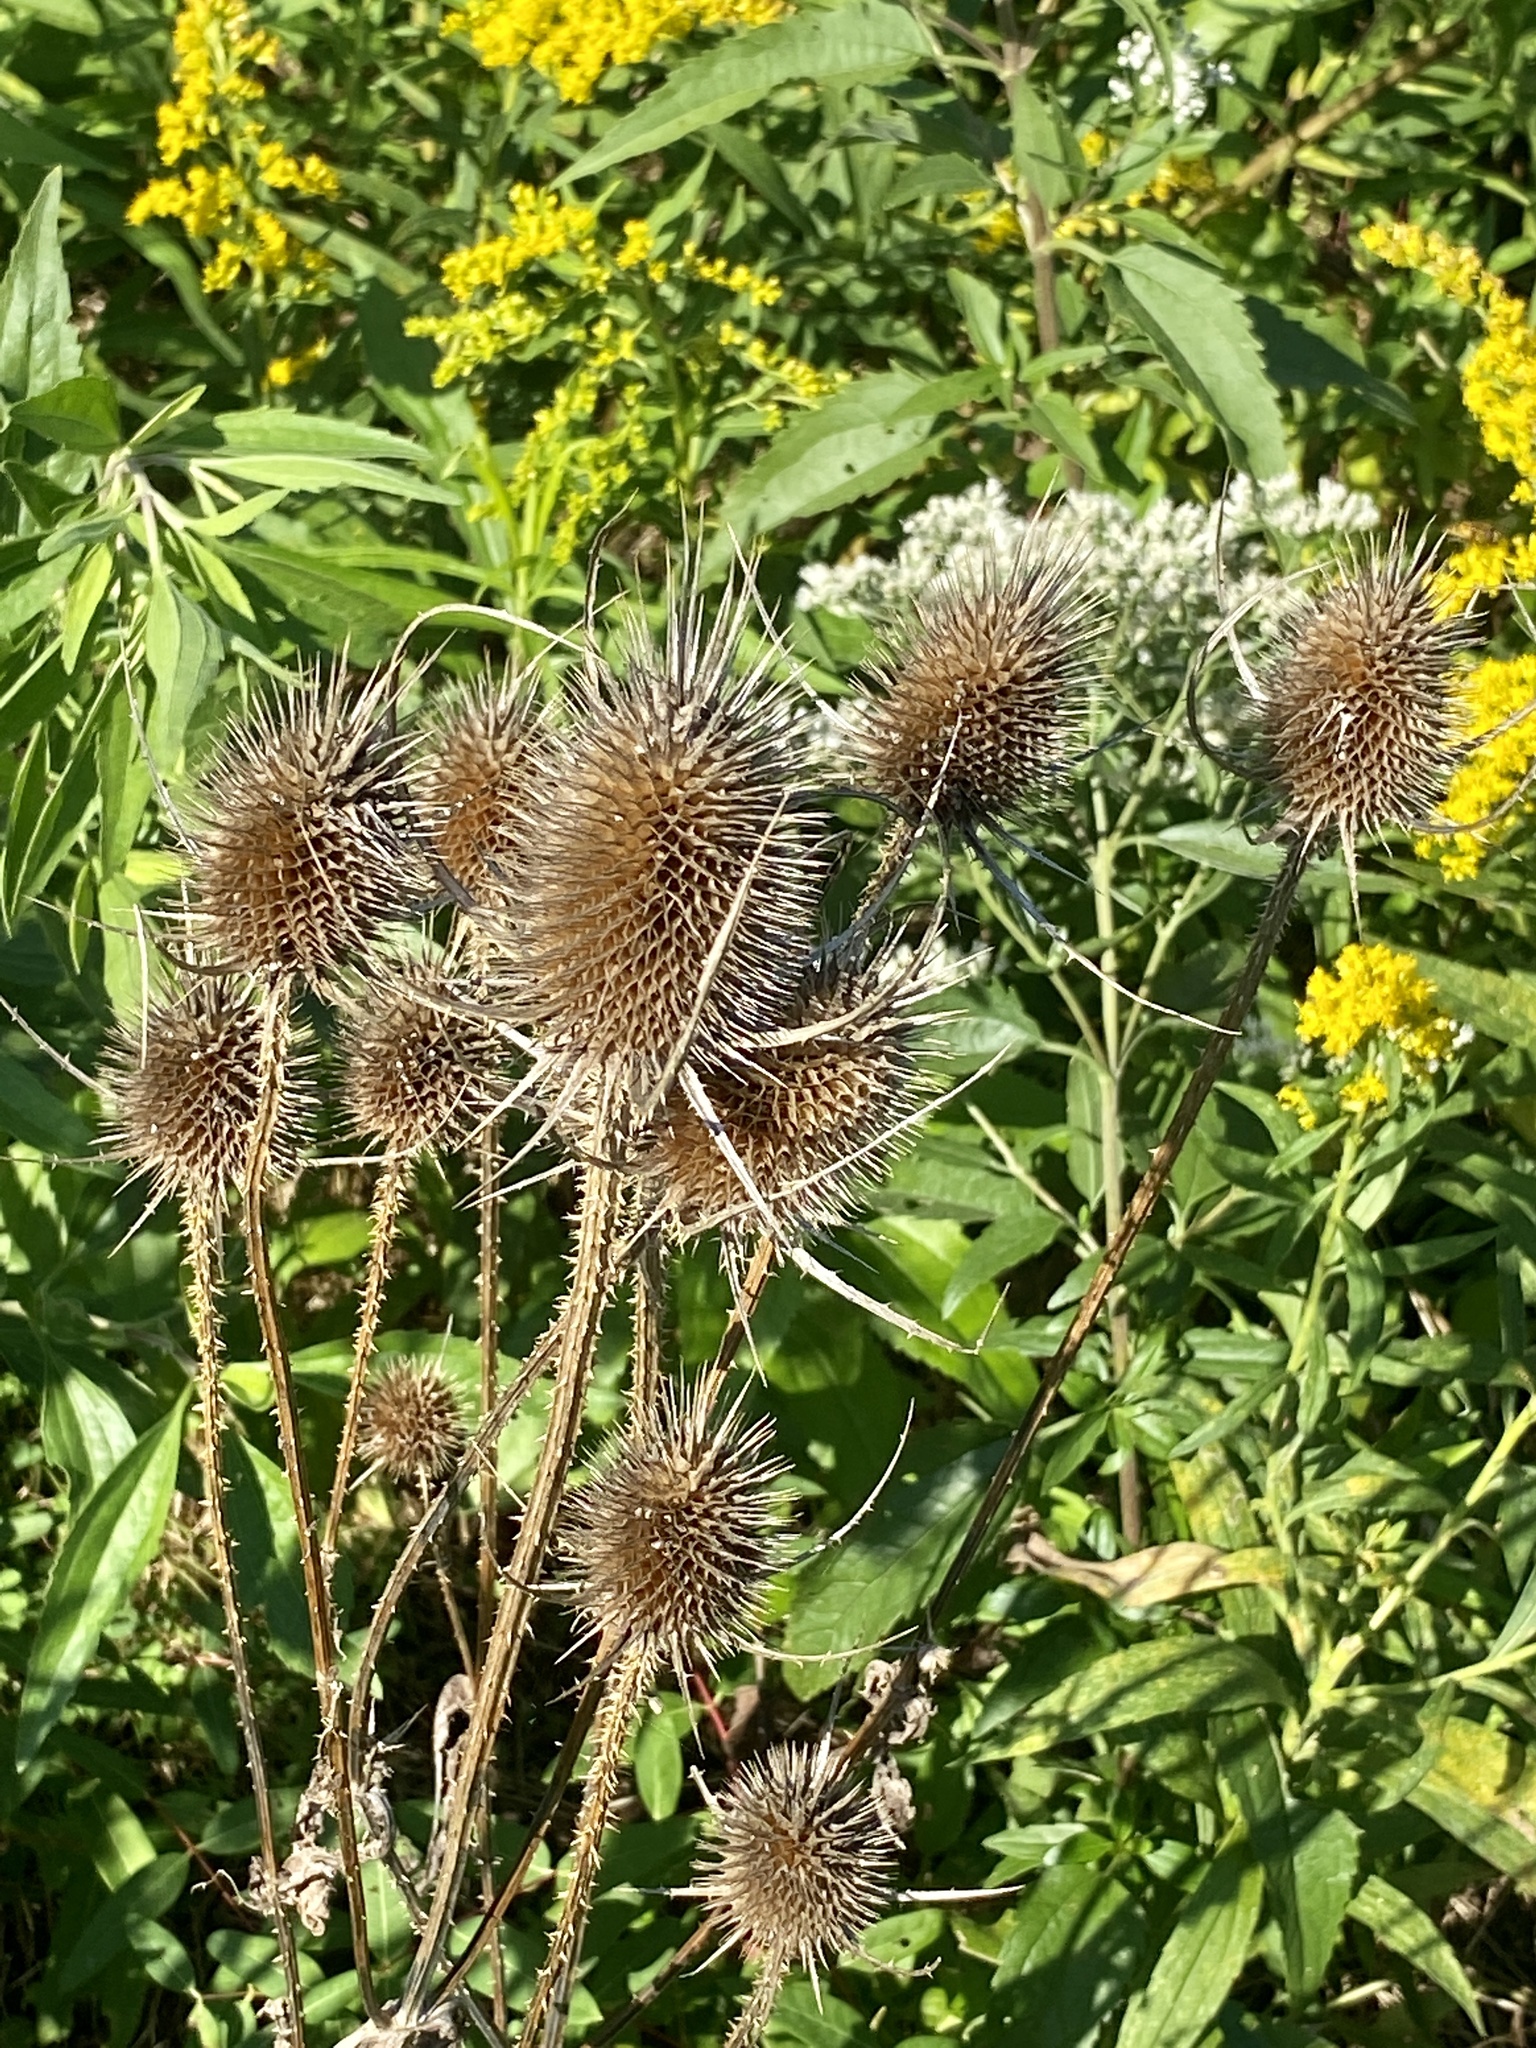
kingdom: Plantae
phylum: Tracheophyta
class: Magnoliopsida
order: Dipsacales
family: Caprifoliaceae
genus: Dipsacus
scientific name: Dipsacus fullonum
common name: Teasel
